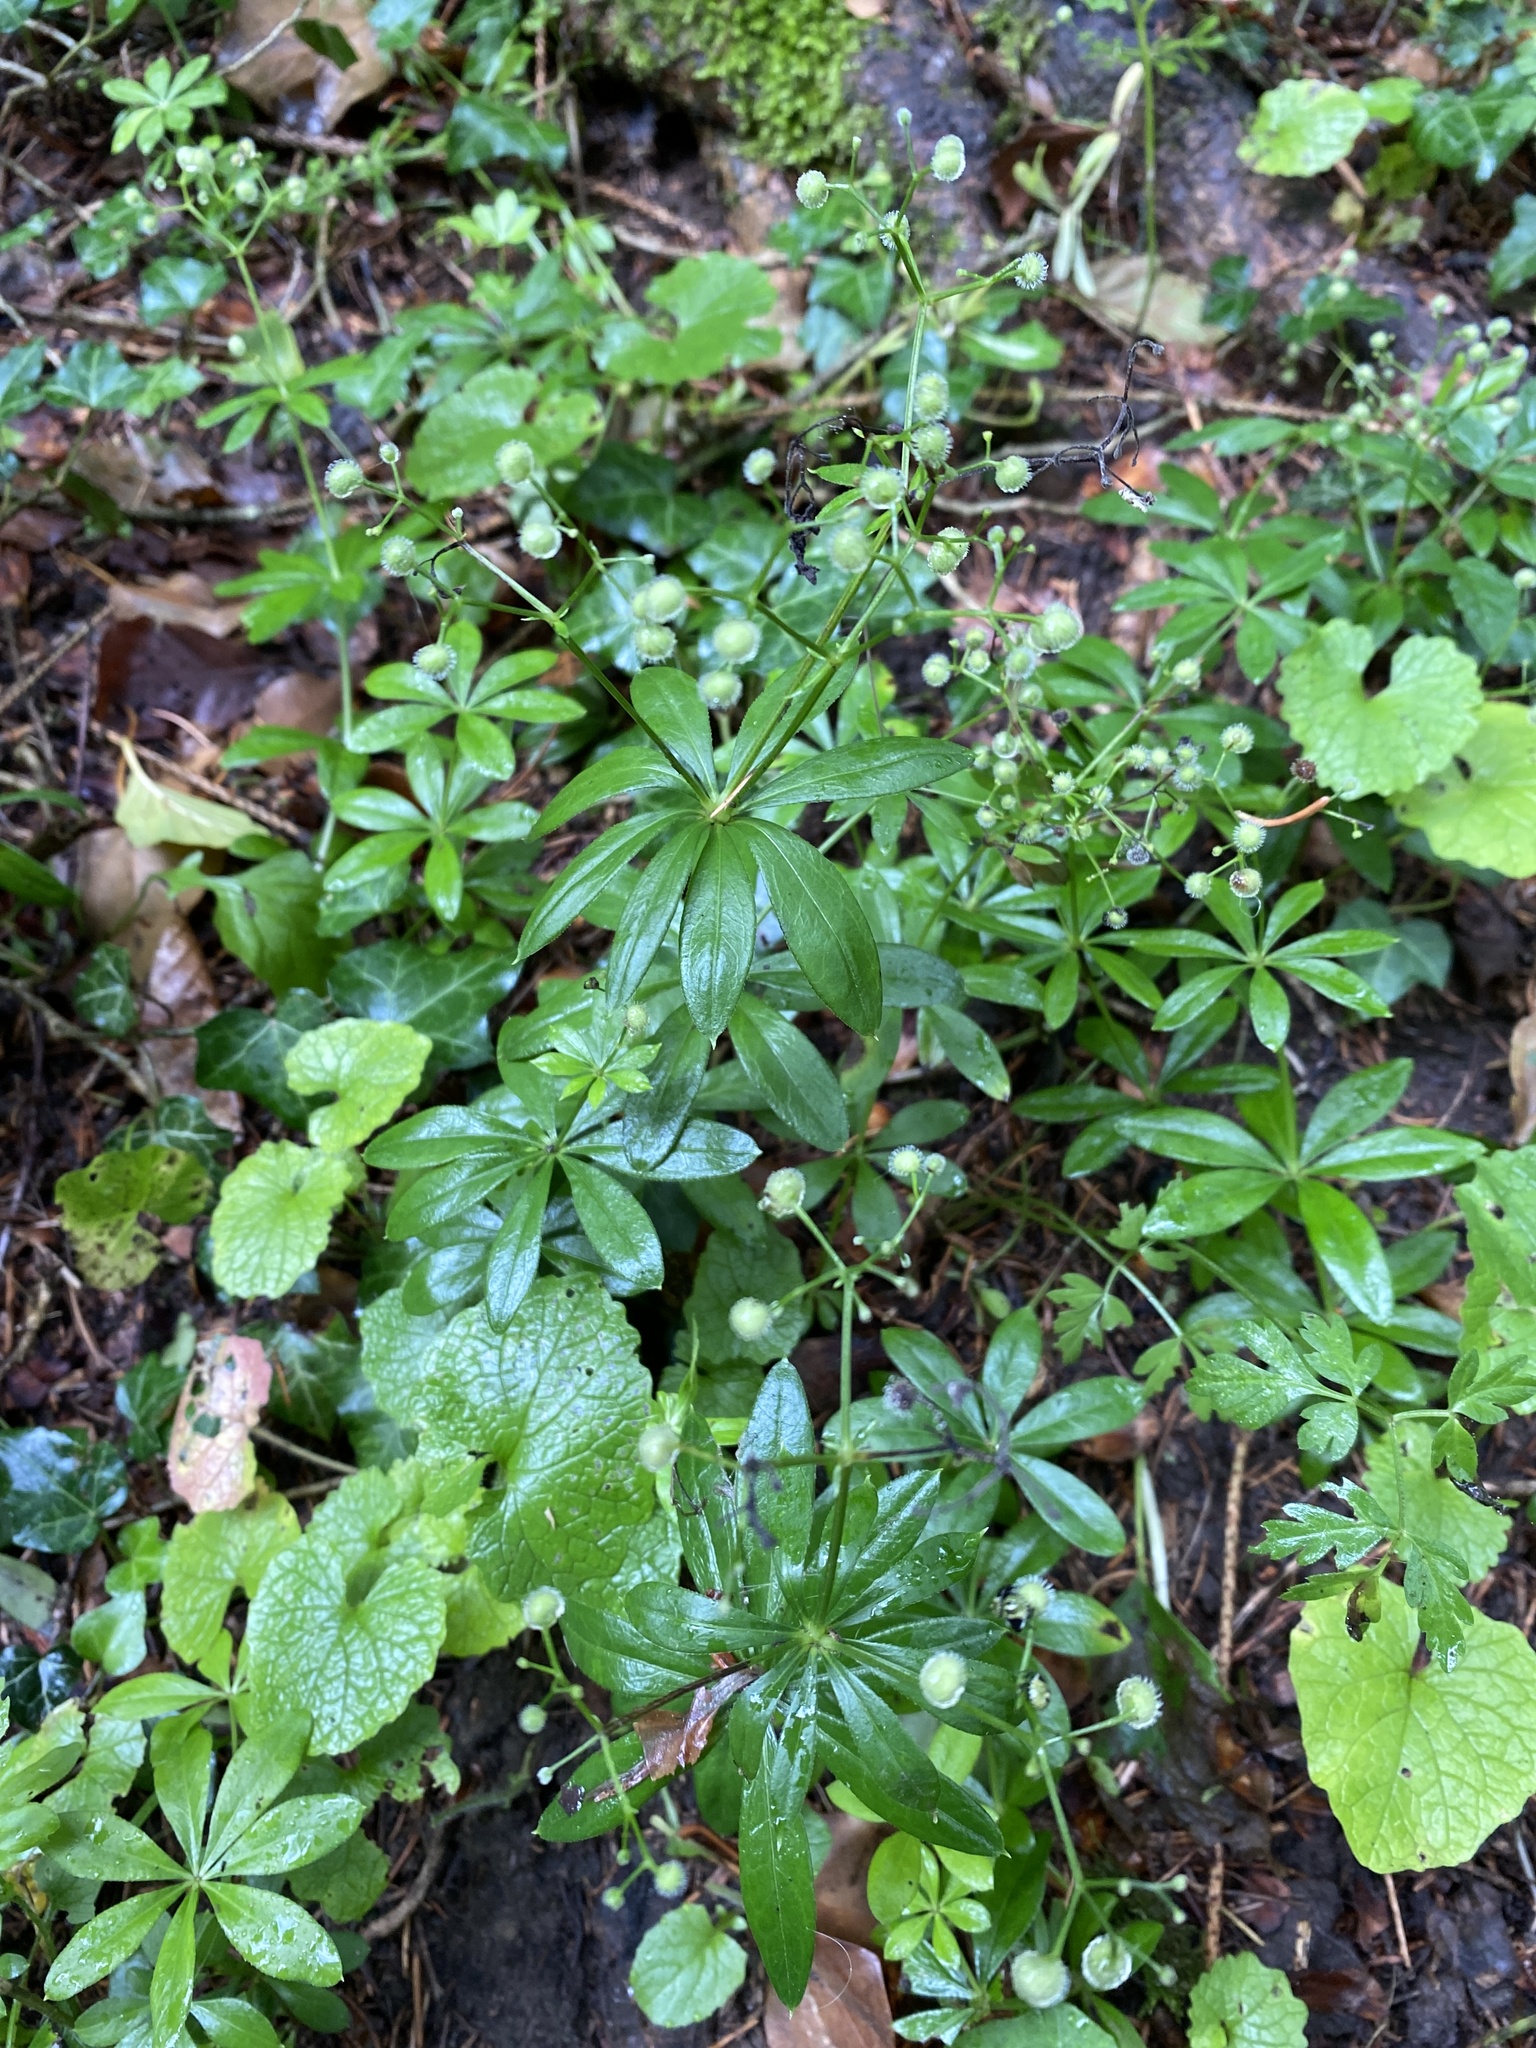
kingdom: Plantae
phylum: Tracheophyta
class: Magnoliopsida
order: Gentianales
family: Rubiaceae
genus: Galium
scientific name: Galium odoratum
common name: Sweet woodruff
